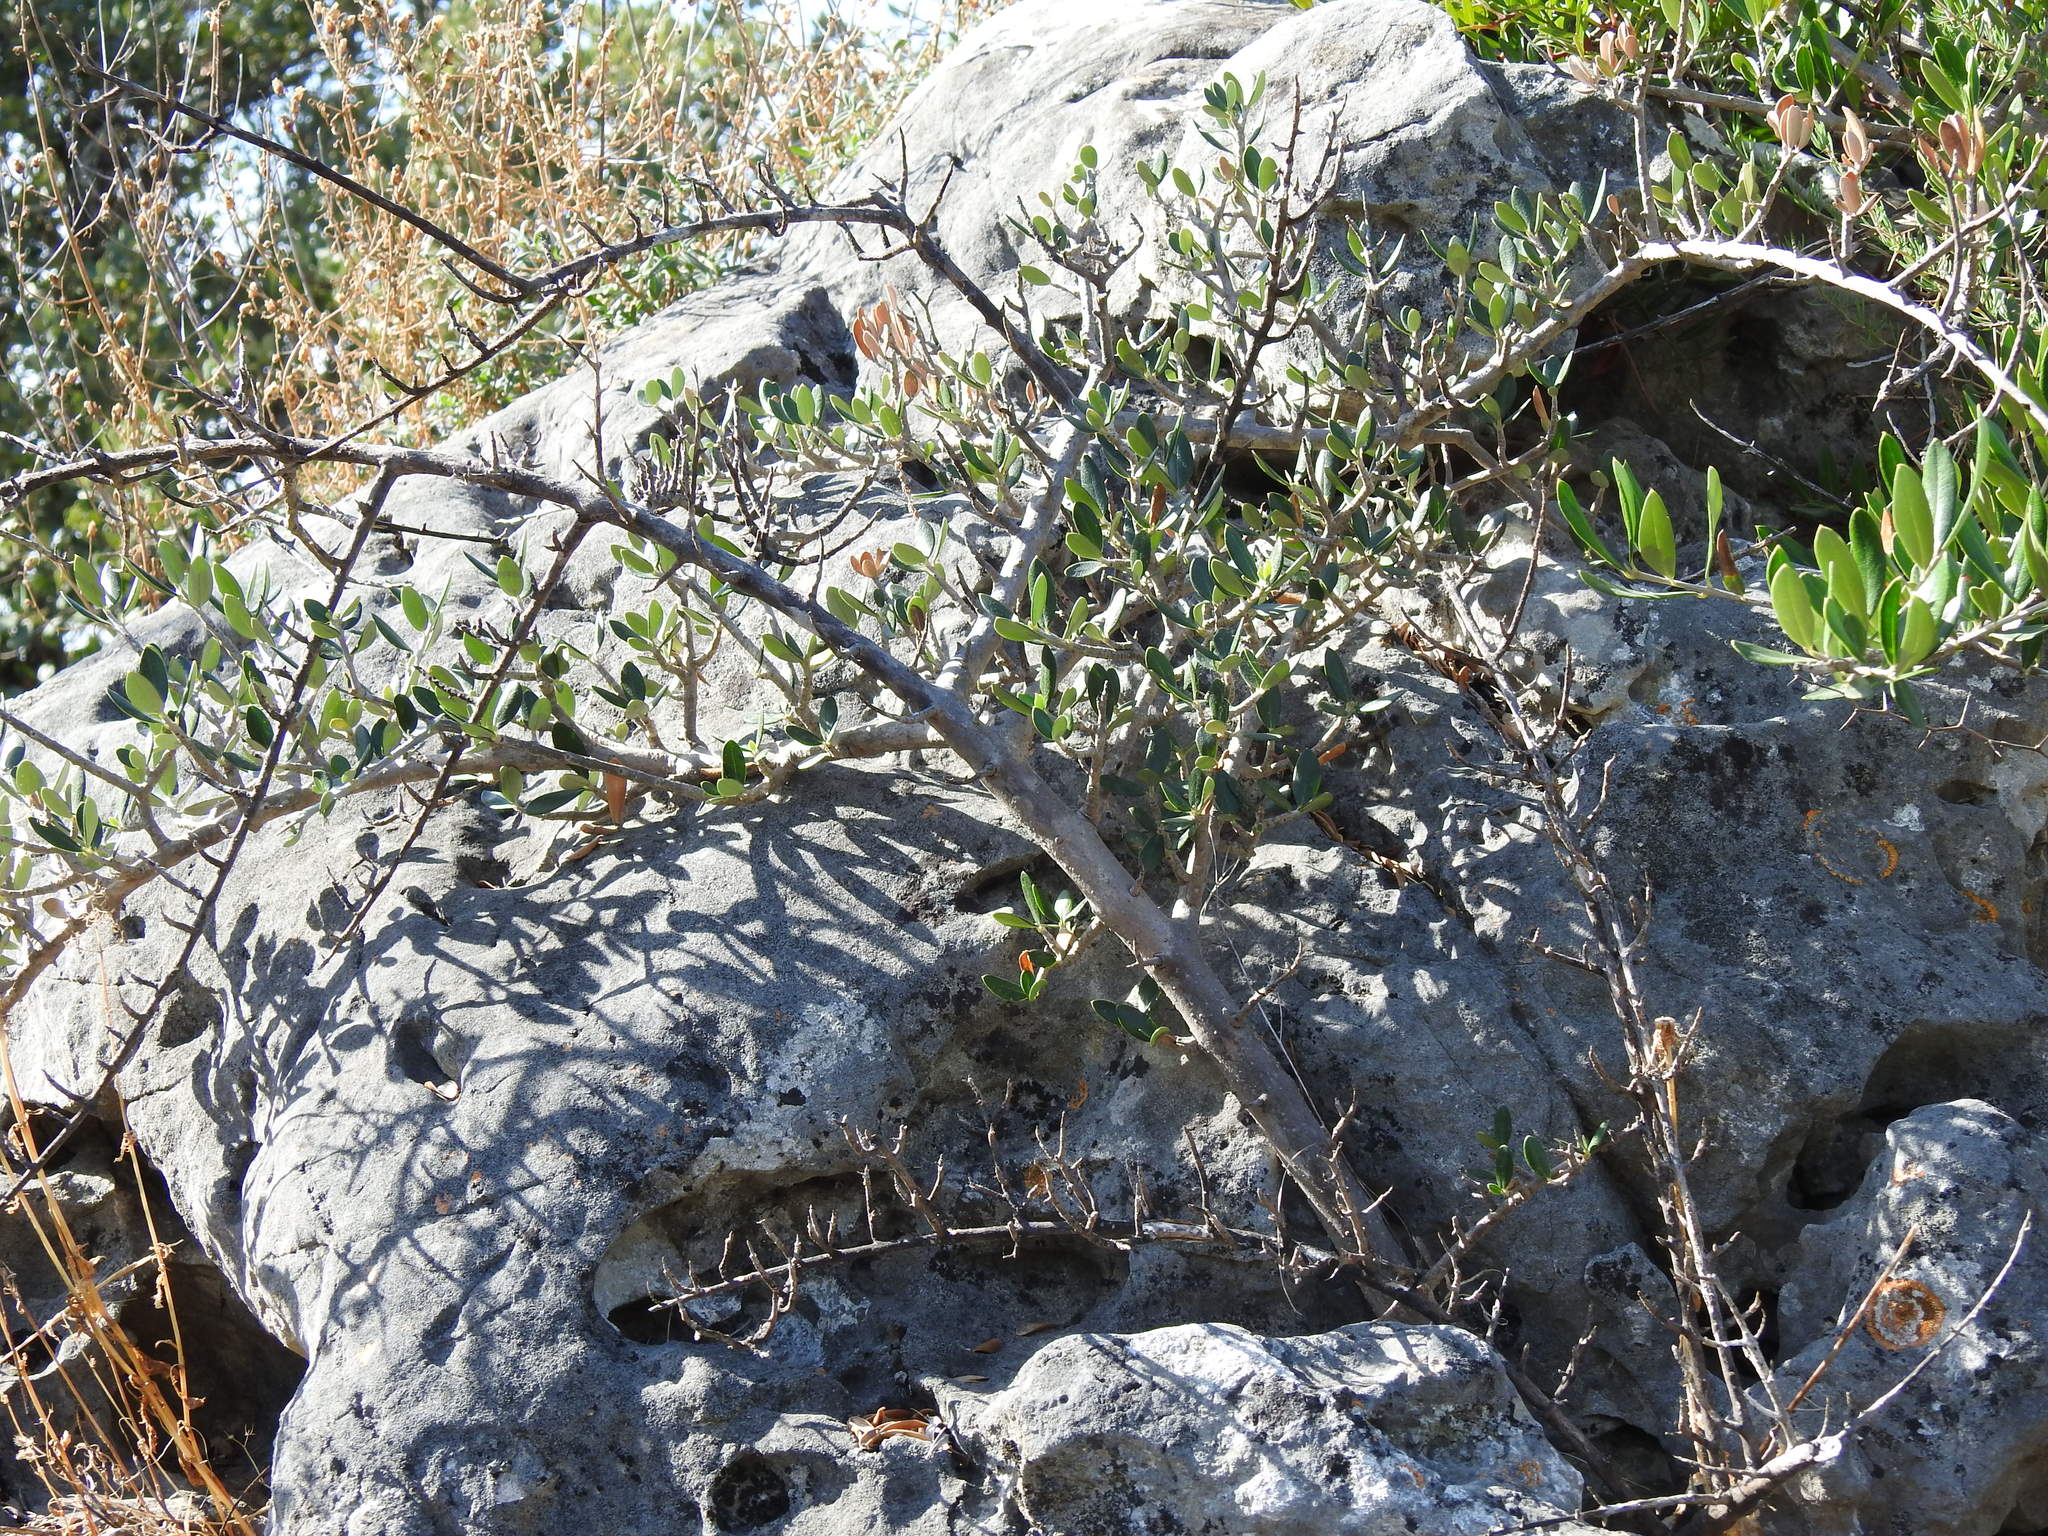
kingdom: Plantae
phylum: Tracheophyta
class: Magnoliopsida
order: Lamiales
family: Oleaceae
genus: Olea
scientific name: Olea europaea
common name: Olive
